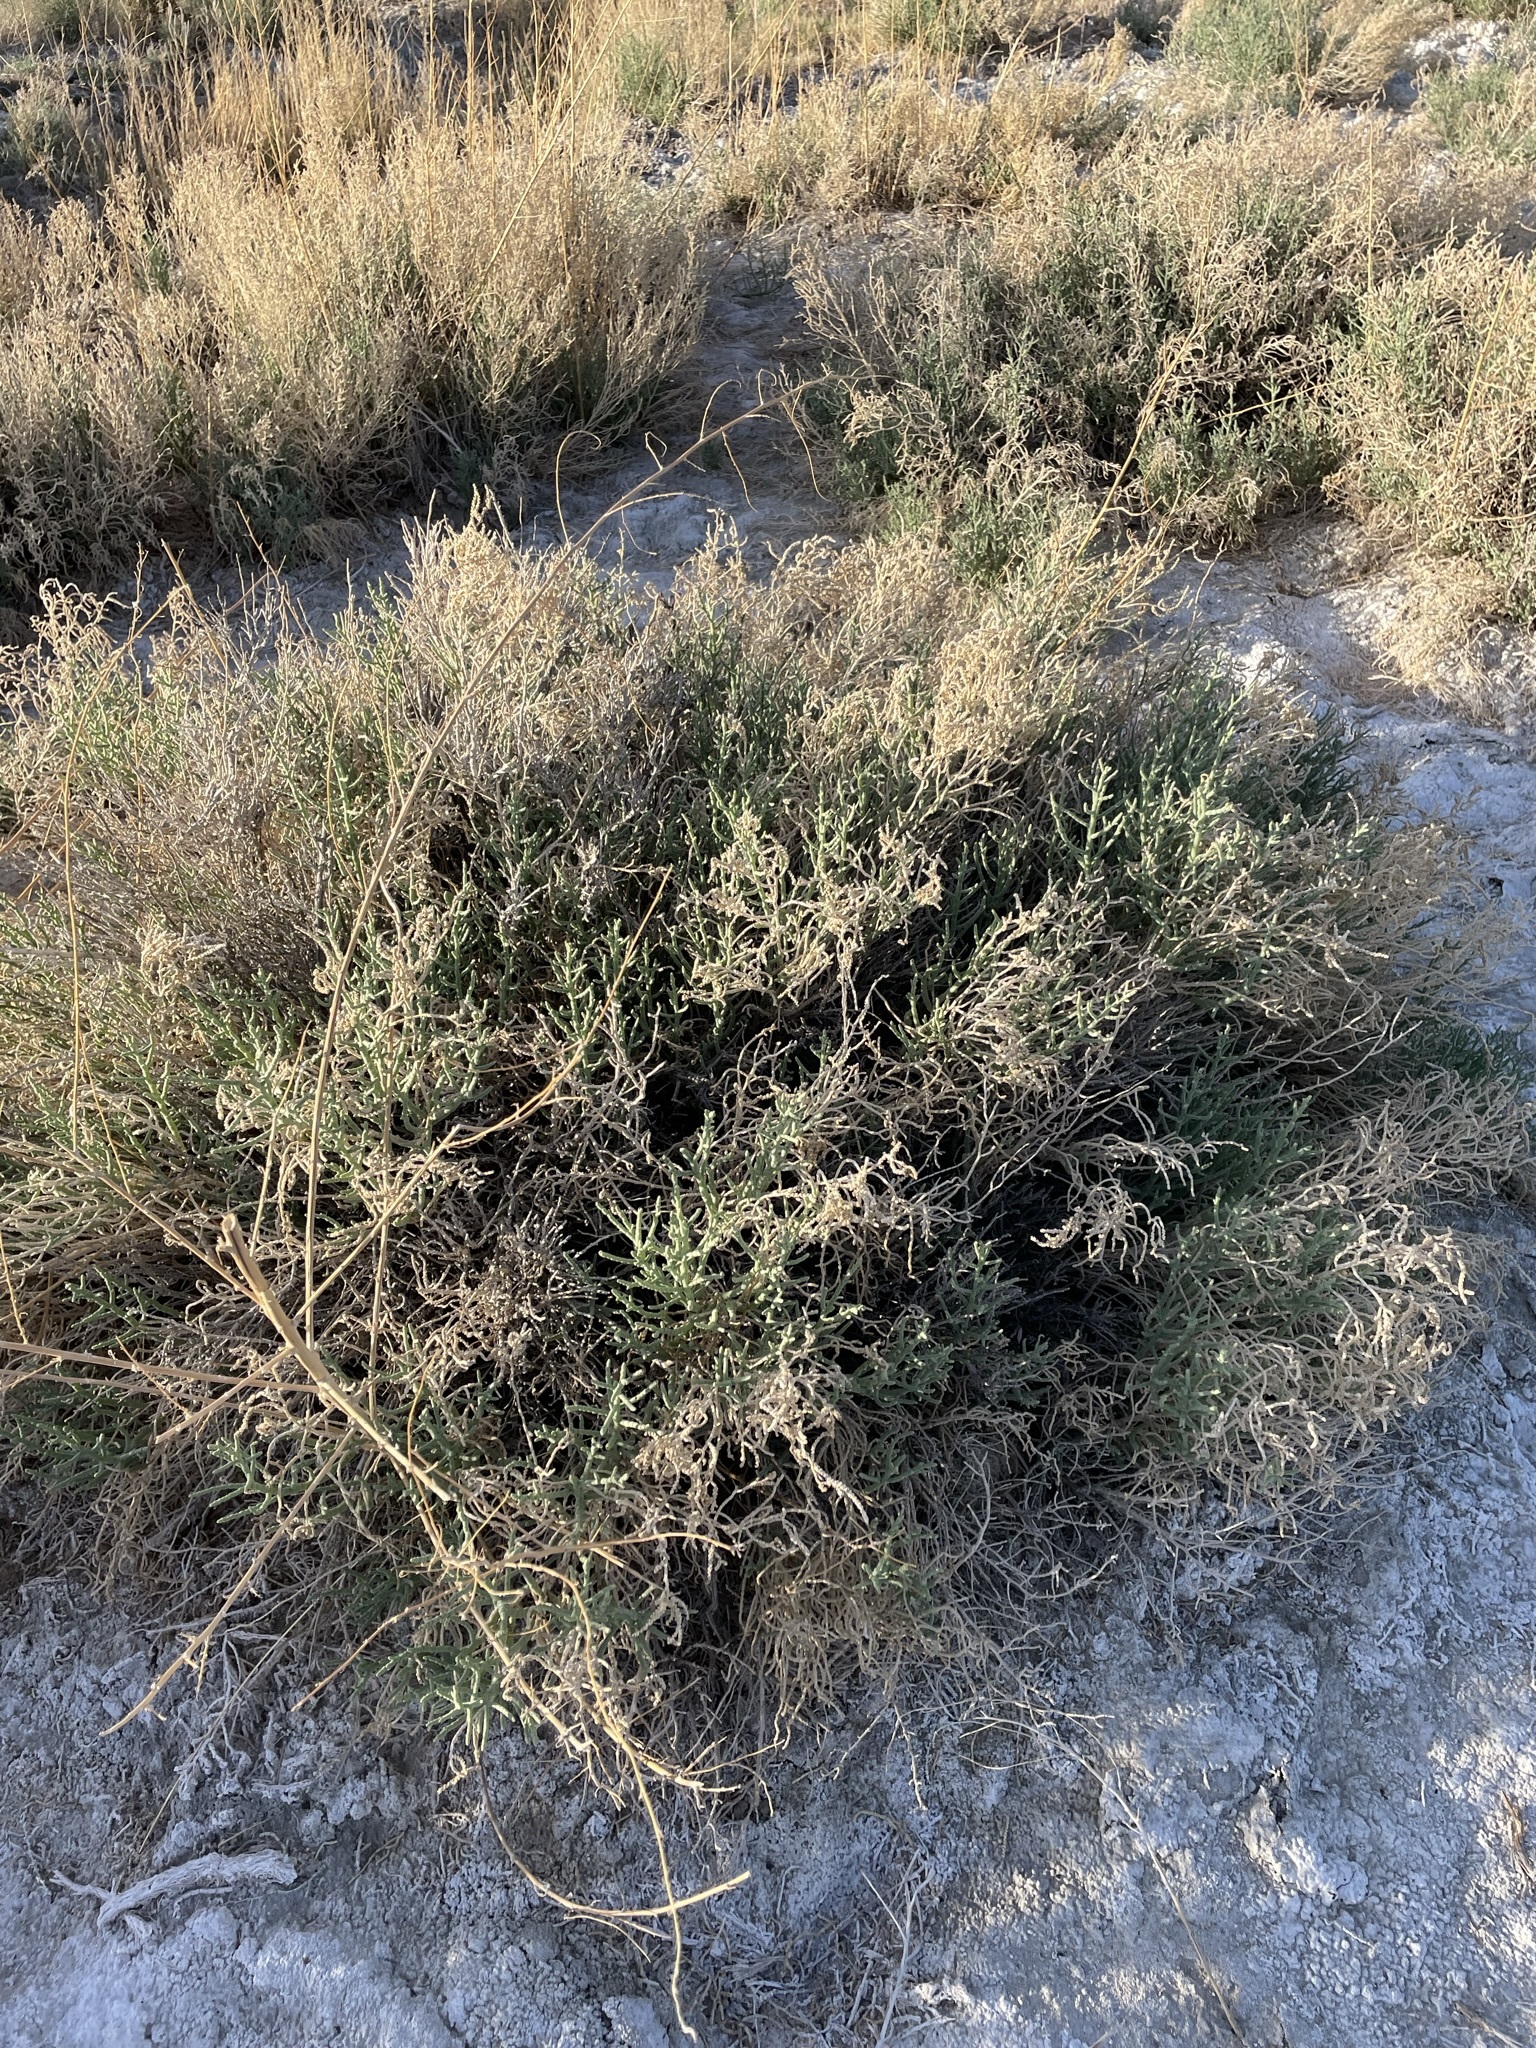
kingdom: Plantae
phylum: Tracheophyta
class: Magnoliopsida
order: Caryophyllales
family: Amaranthaceae
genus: Allenrolfea
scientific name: Allenrolfea occidentalis
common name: Iodine-bush
